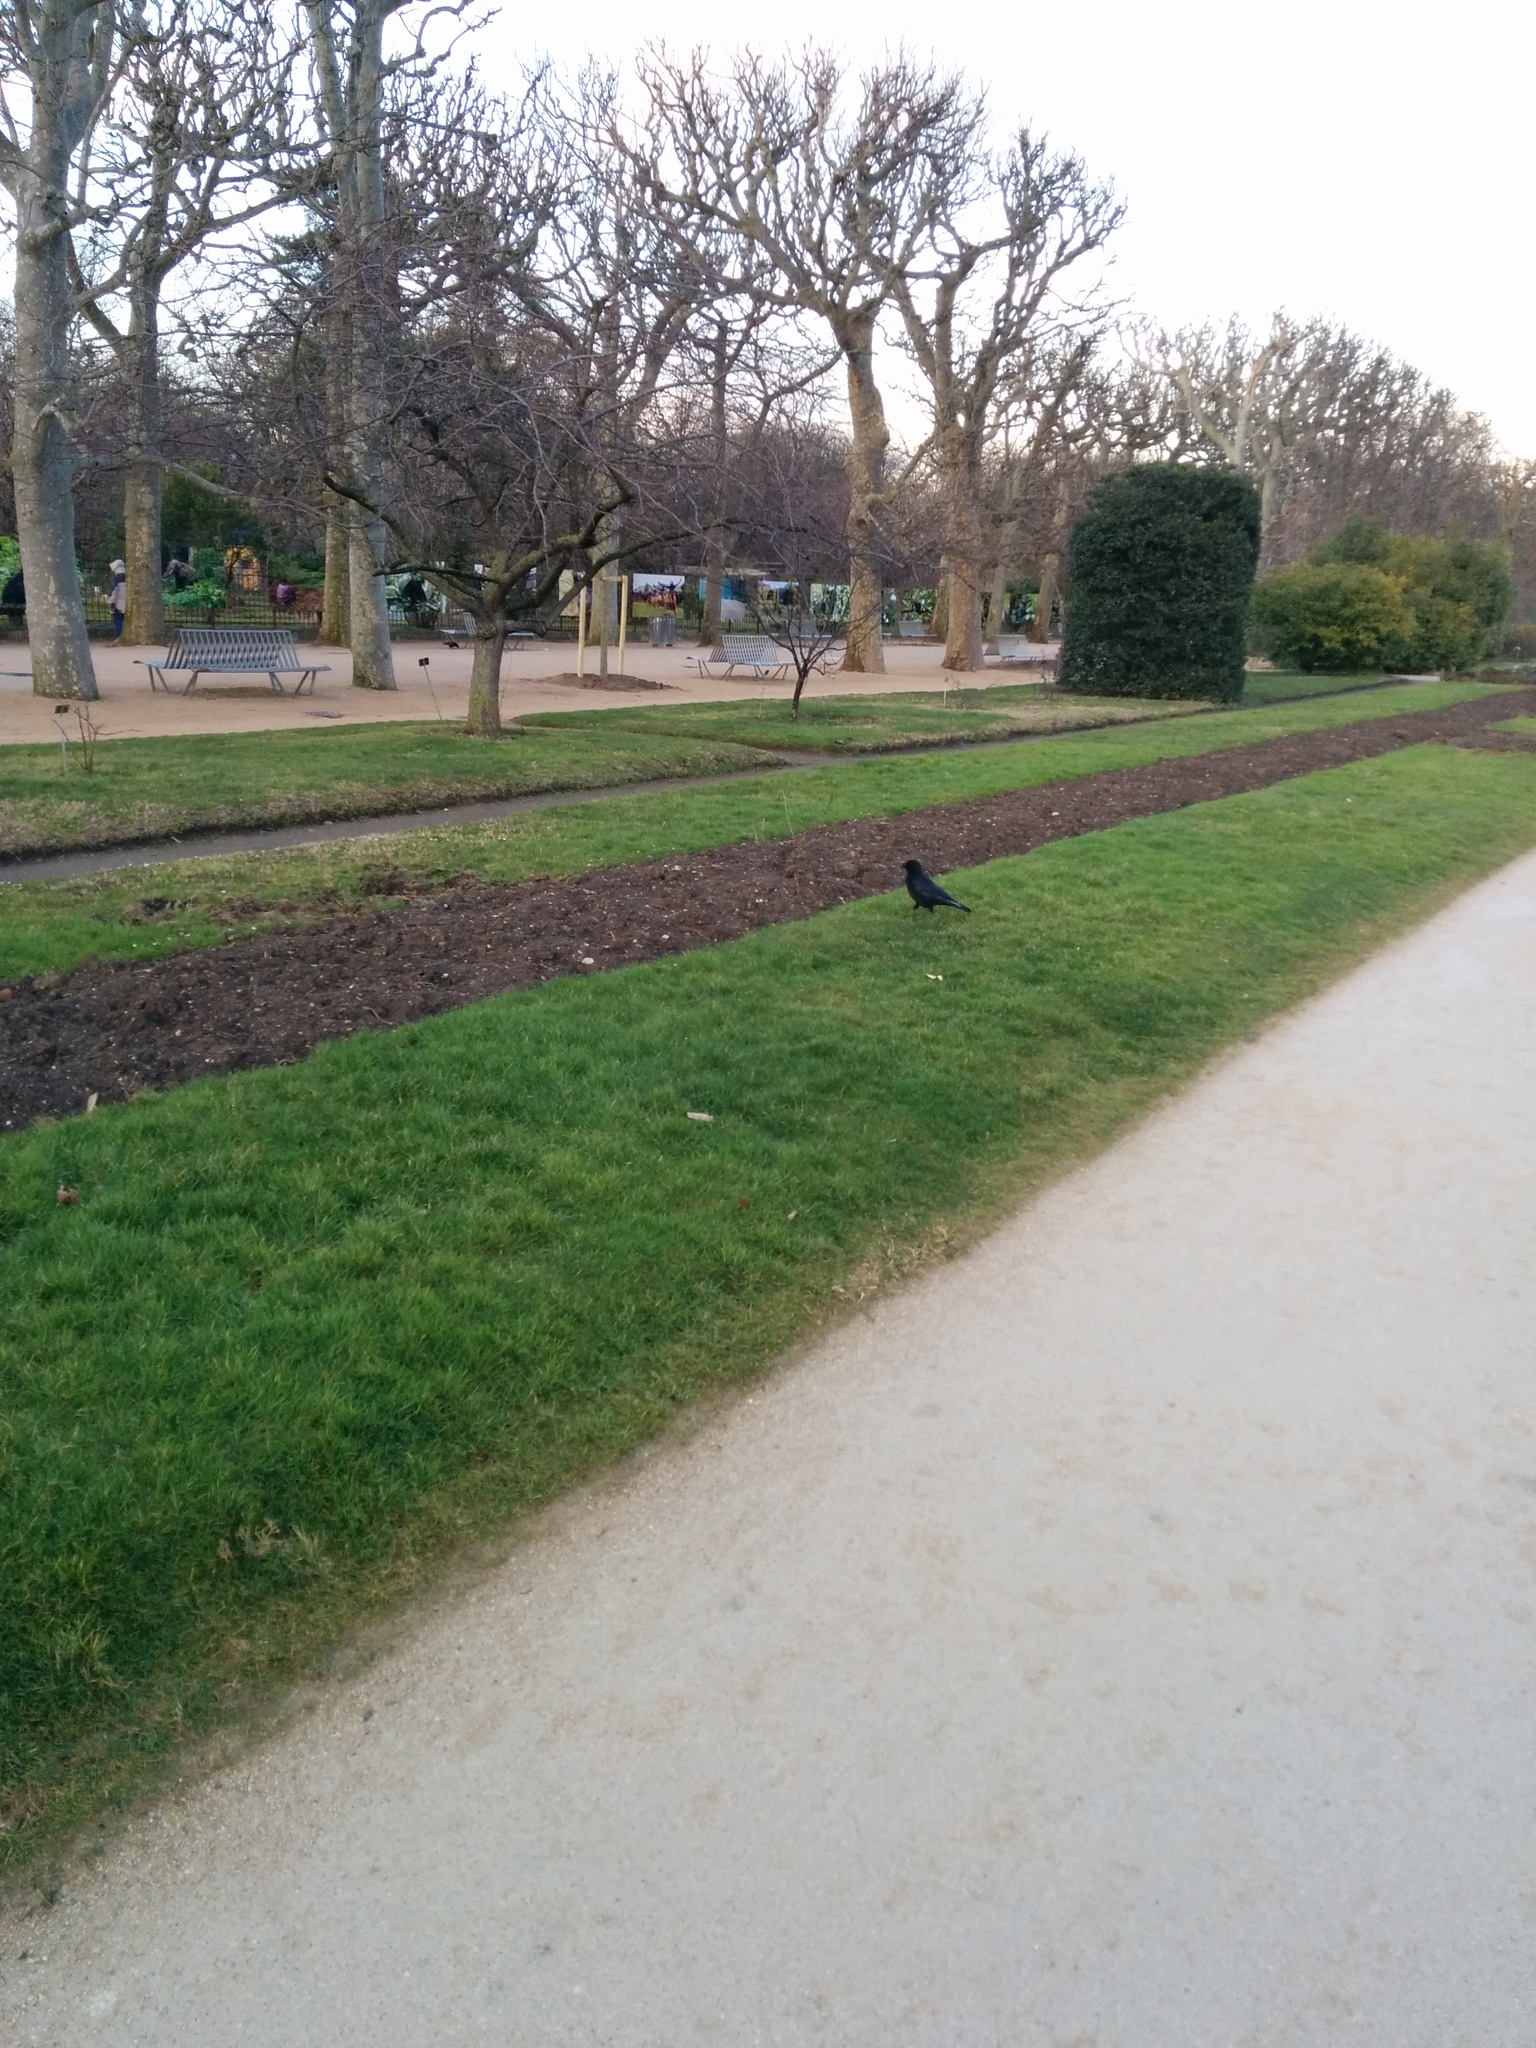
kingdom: Animalia
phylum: Chordata
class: Aves
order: Passeriformes
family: Corvidae
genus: Corvus
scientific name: Corvus corone
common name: Carrion crow
